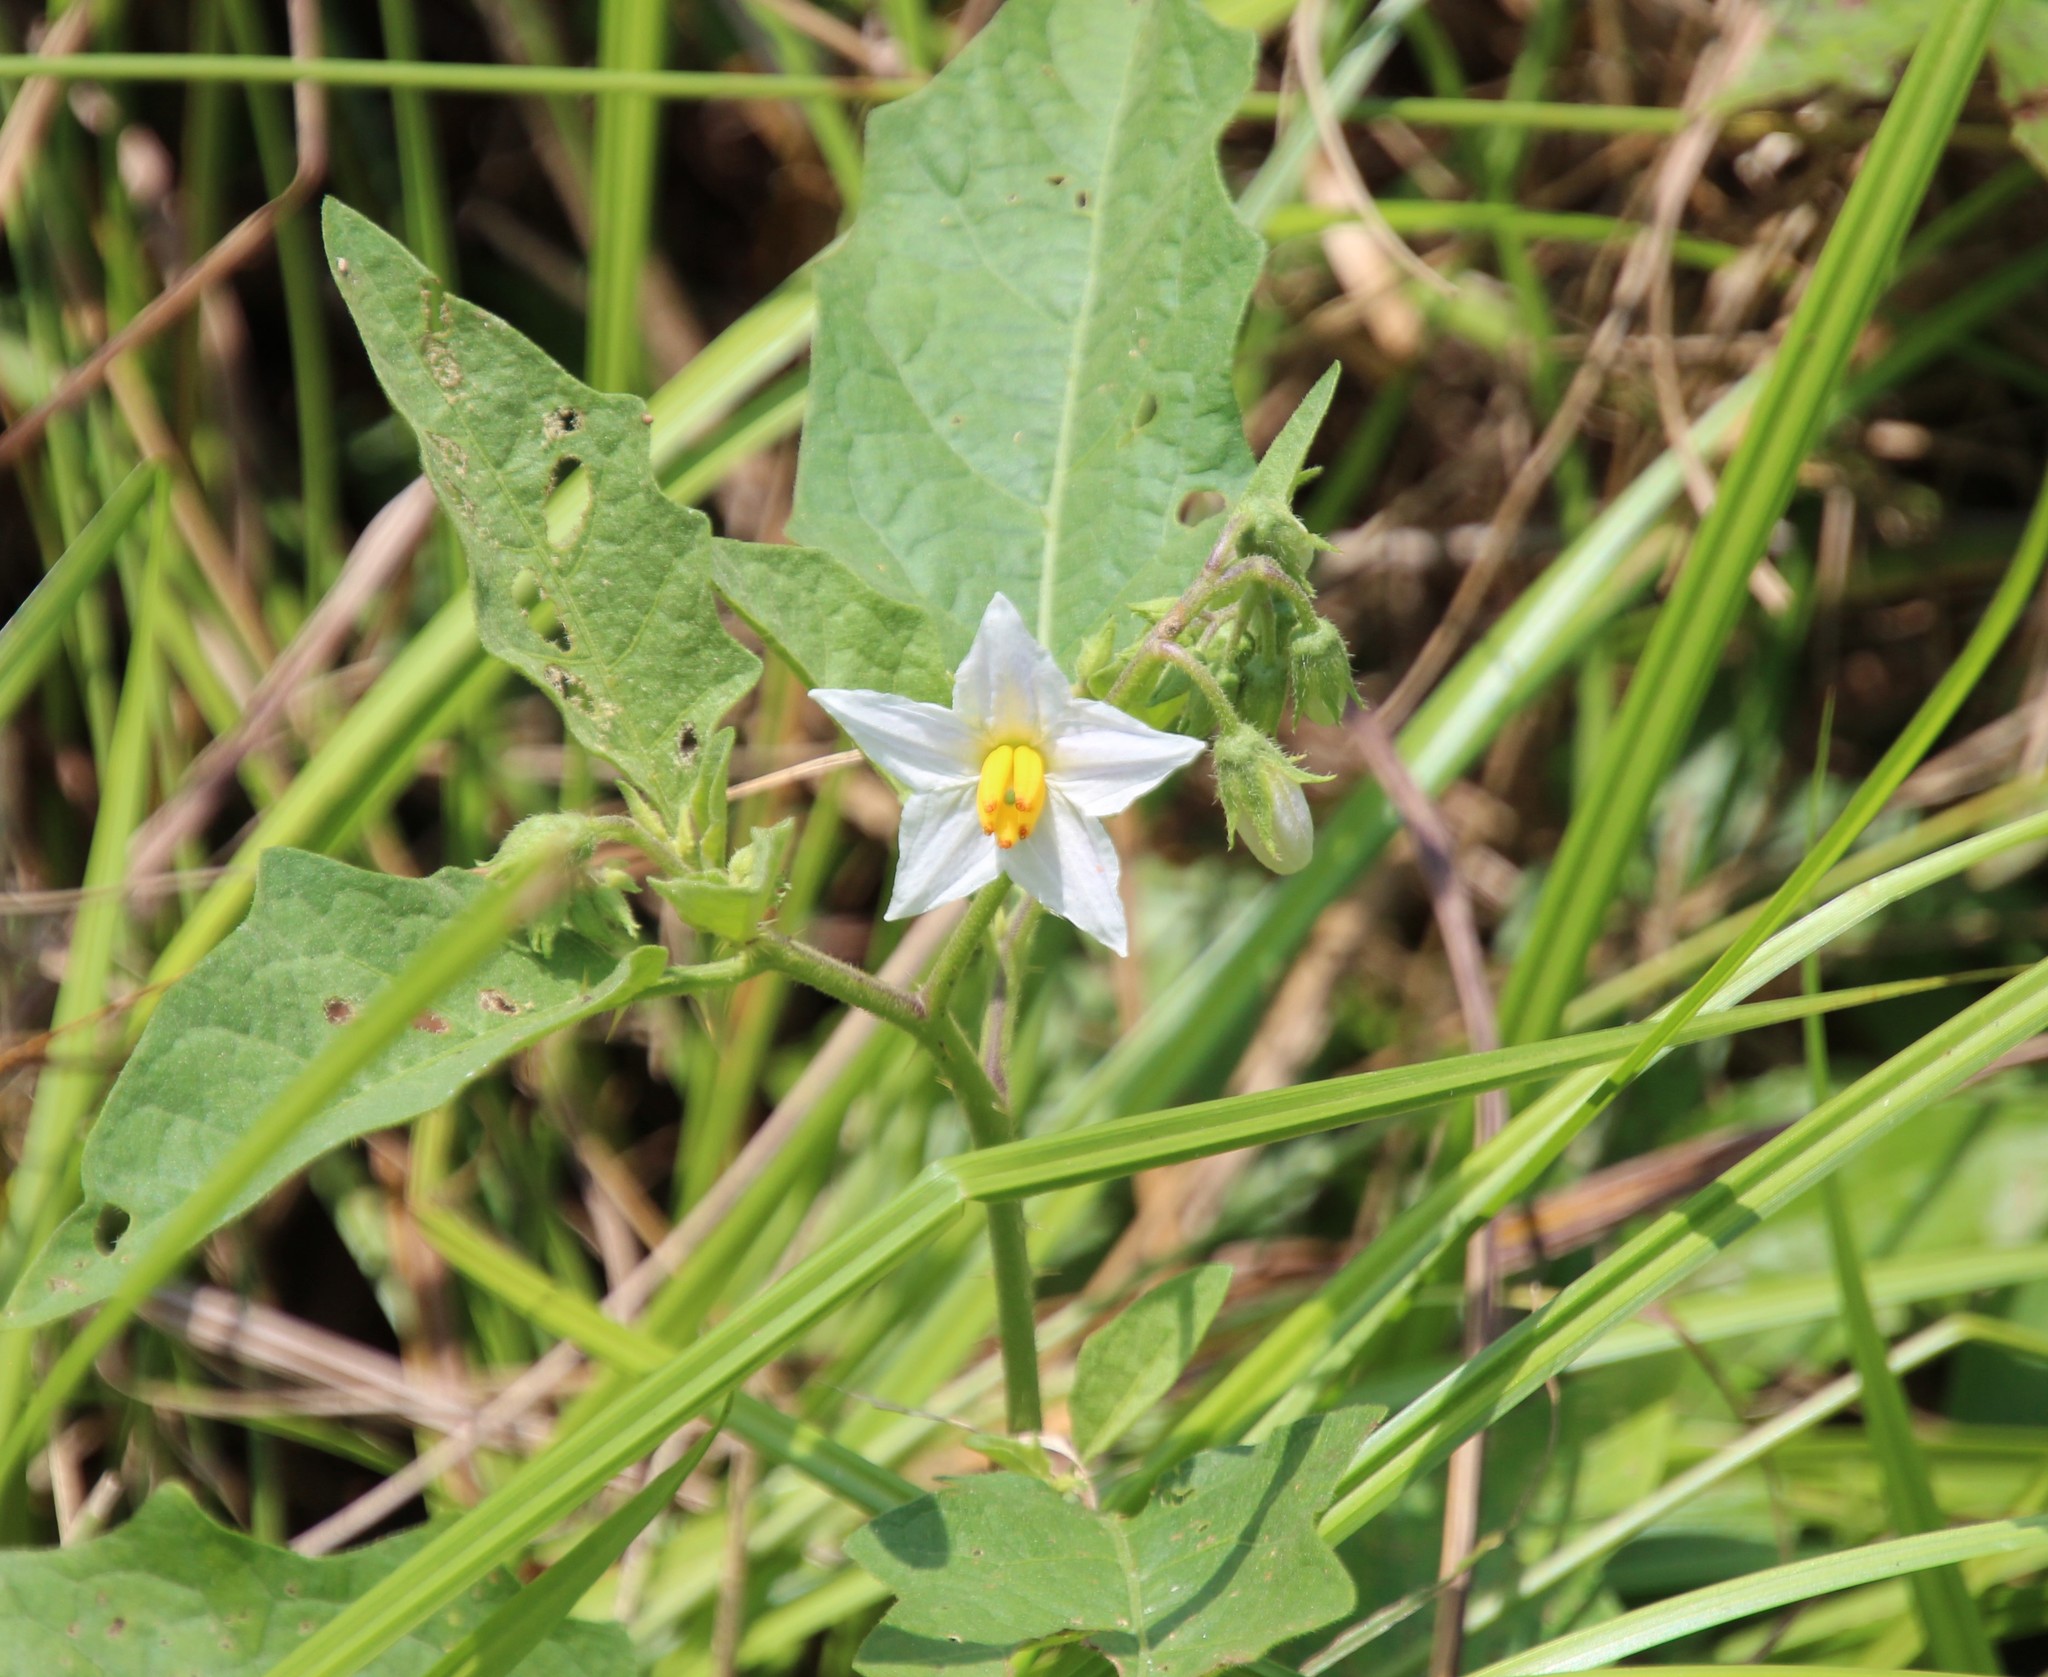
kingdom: Plantae
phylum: Tracheophyta
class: Magnoliopsida
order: Solanales
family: Solanaceae
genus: Solanum
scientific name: Solanum carolinense
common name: Horse-nettle
